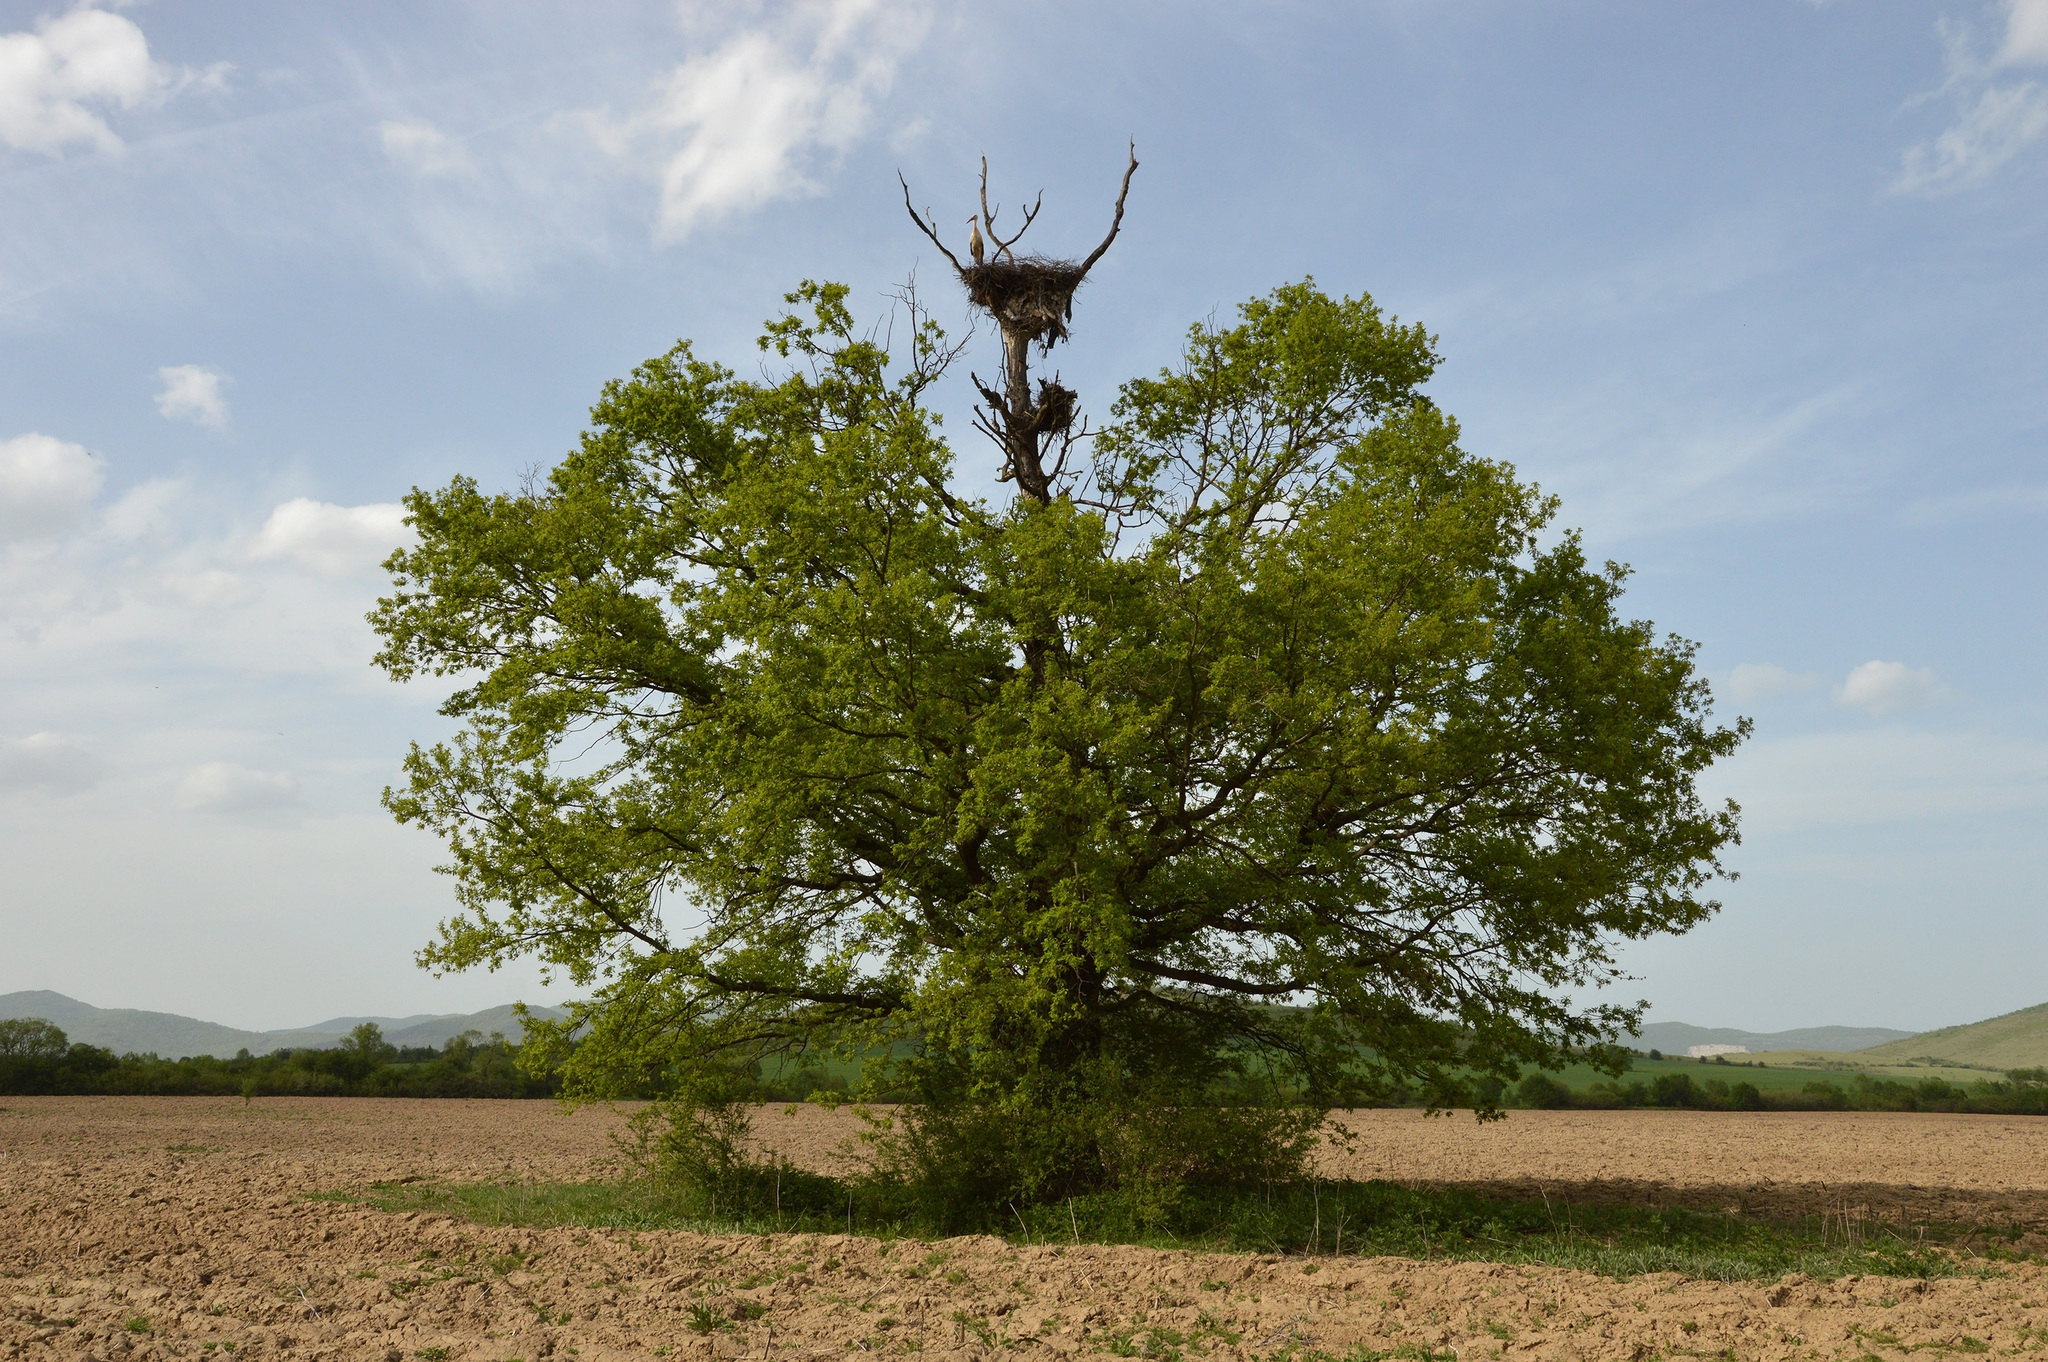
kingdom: Animalia
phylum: Chordata
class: Aves
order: Ciconiiformes
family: Ciconiidae
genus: Ciconia
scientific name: Ciconia ciconia
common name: White stork
